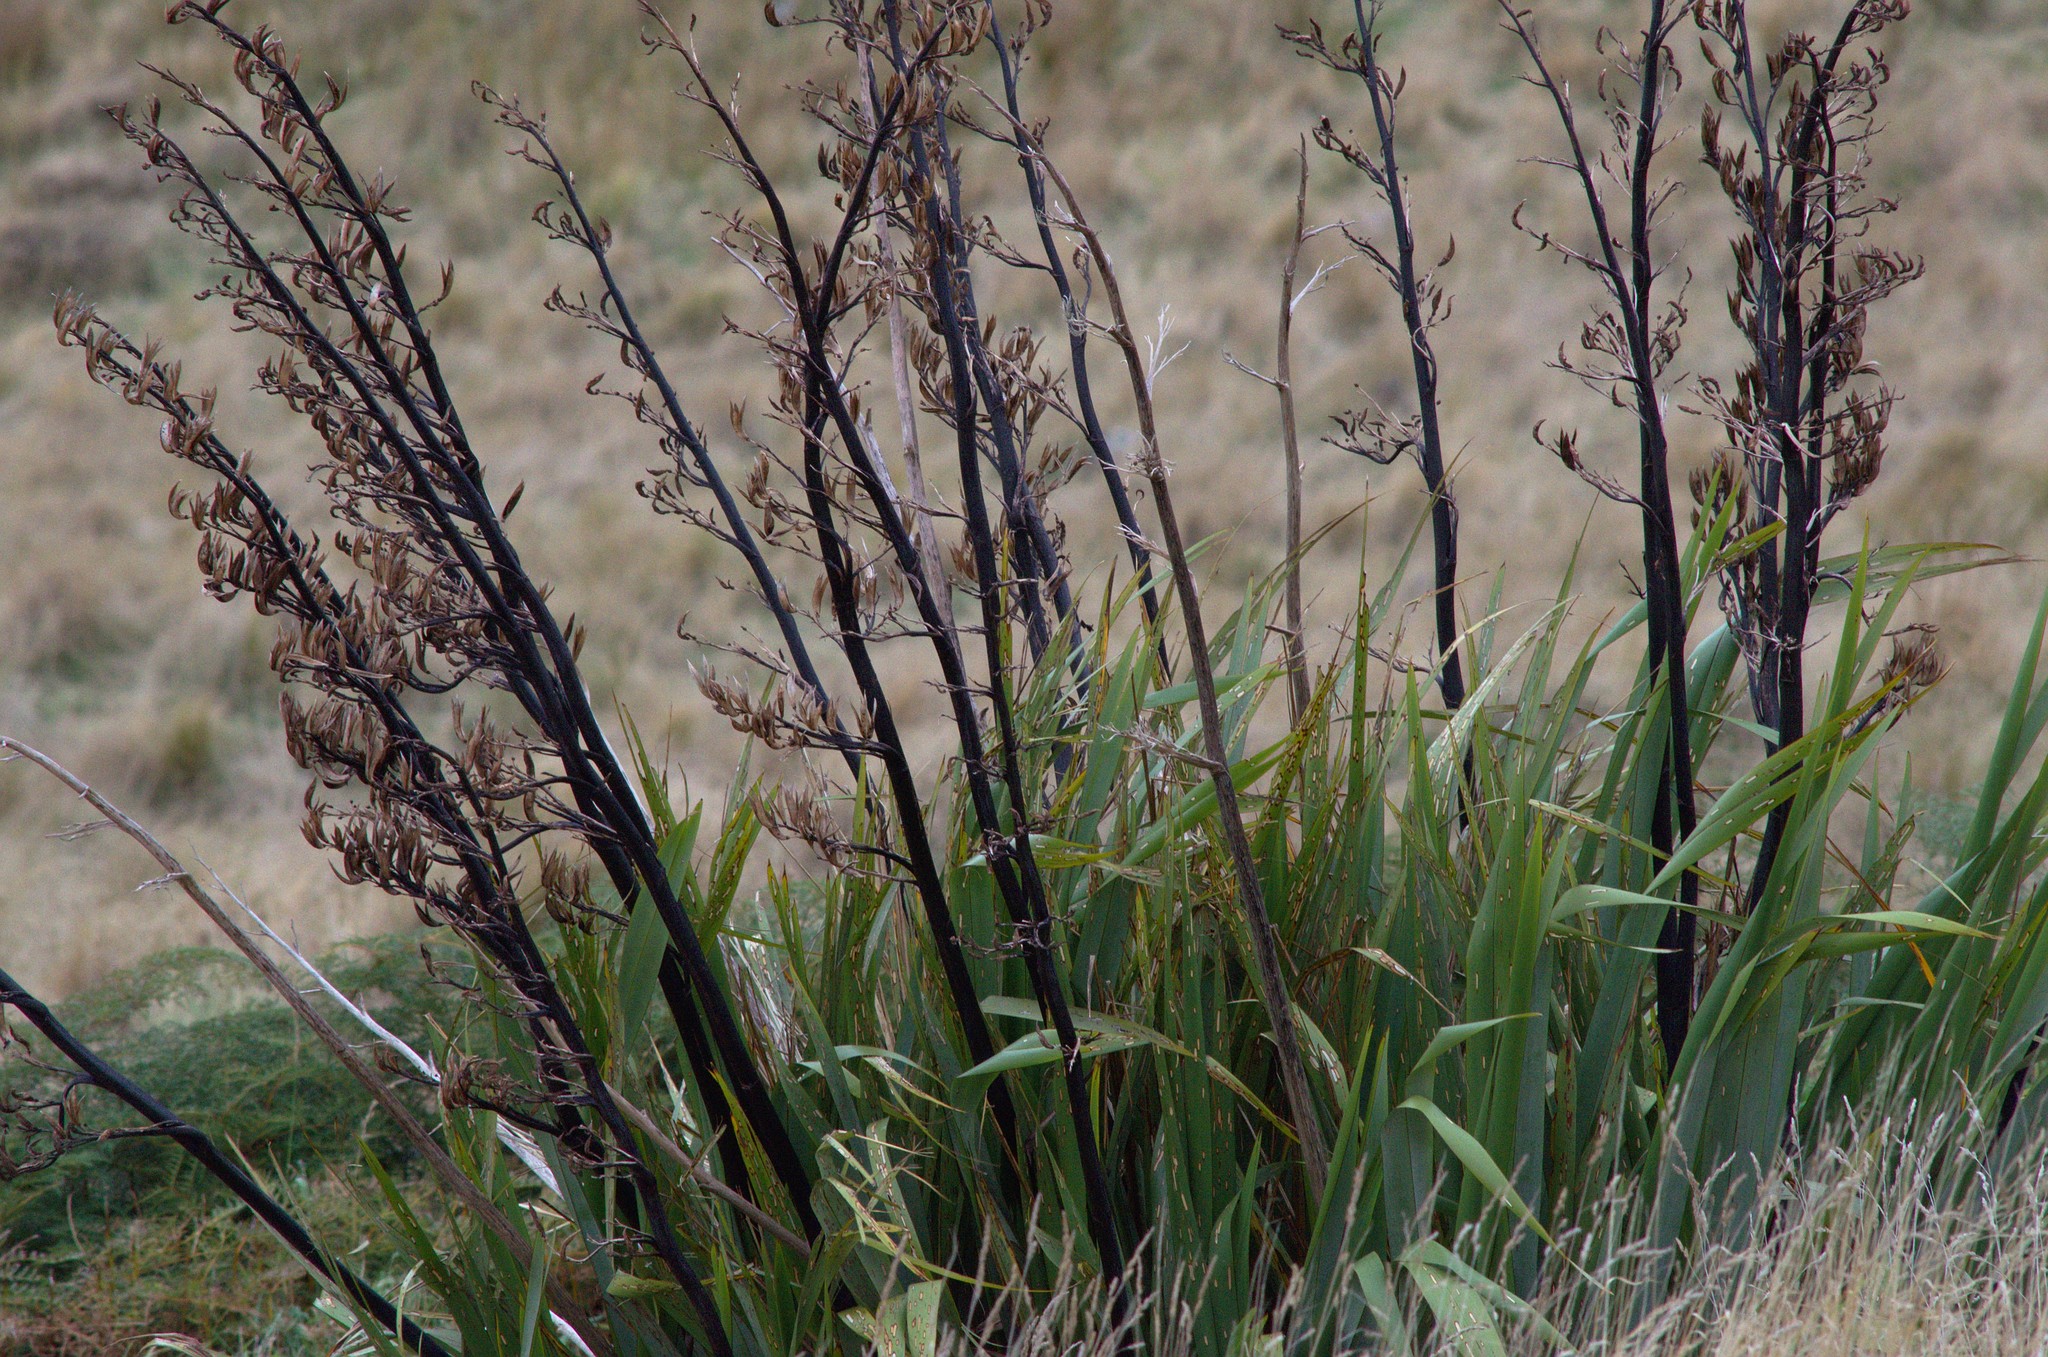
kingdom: Plantae
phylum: Tracheophyta
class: Liliopsida
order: Asparagales
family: Asphodelaceae
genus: Phormium
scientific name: Phormium tenax
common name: New zealand flax
